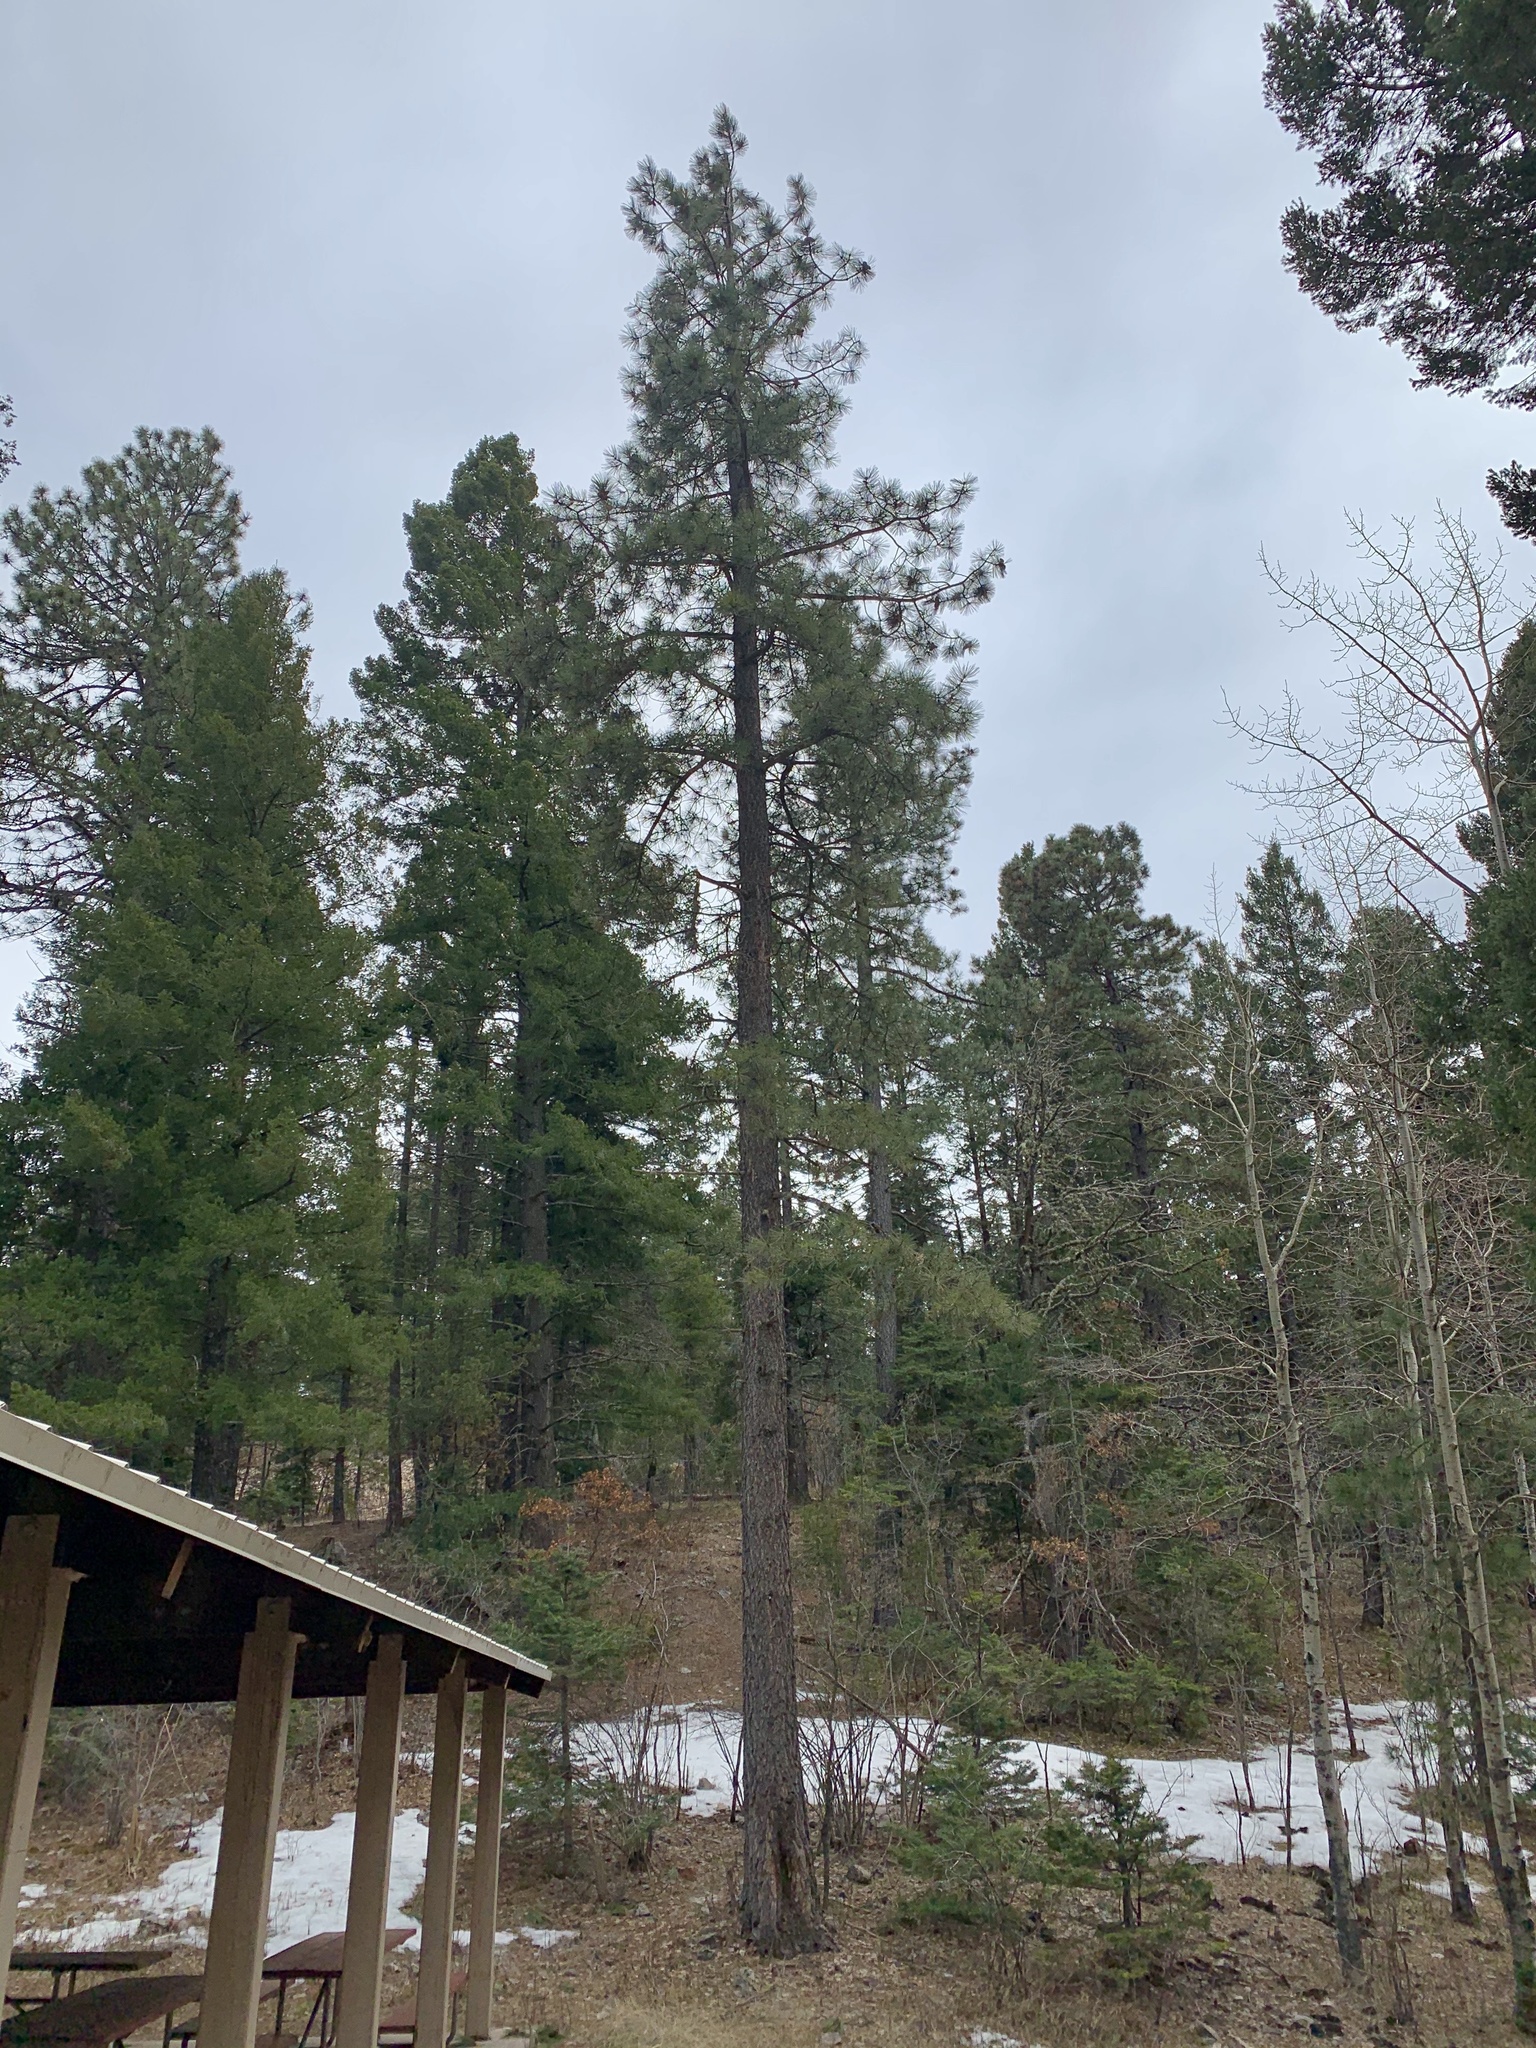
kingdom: Plantae
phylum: Tracheophyta
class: Pinopsida
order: Pinales
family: Pinaceae
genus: Pinus
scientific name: Pinus ponderosa
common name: Western yellow-pine
